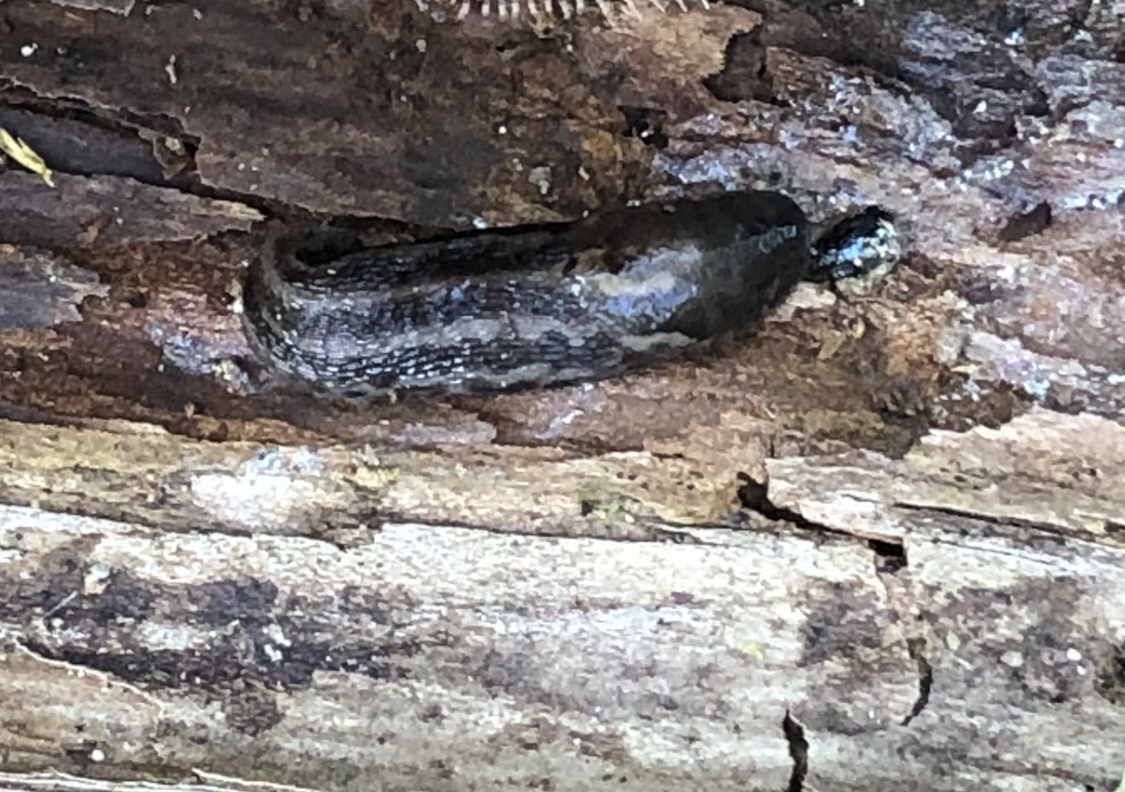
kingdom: Animalia
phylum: Mollusca
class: Gastropoda
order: Stylommatophora
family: Limacidae
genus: Limax
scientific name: Limax maximus
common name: Great grey slug
